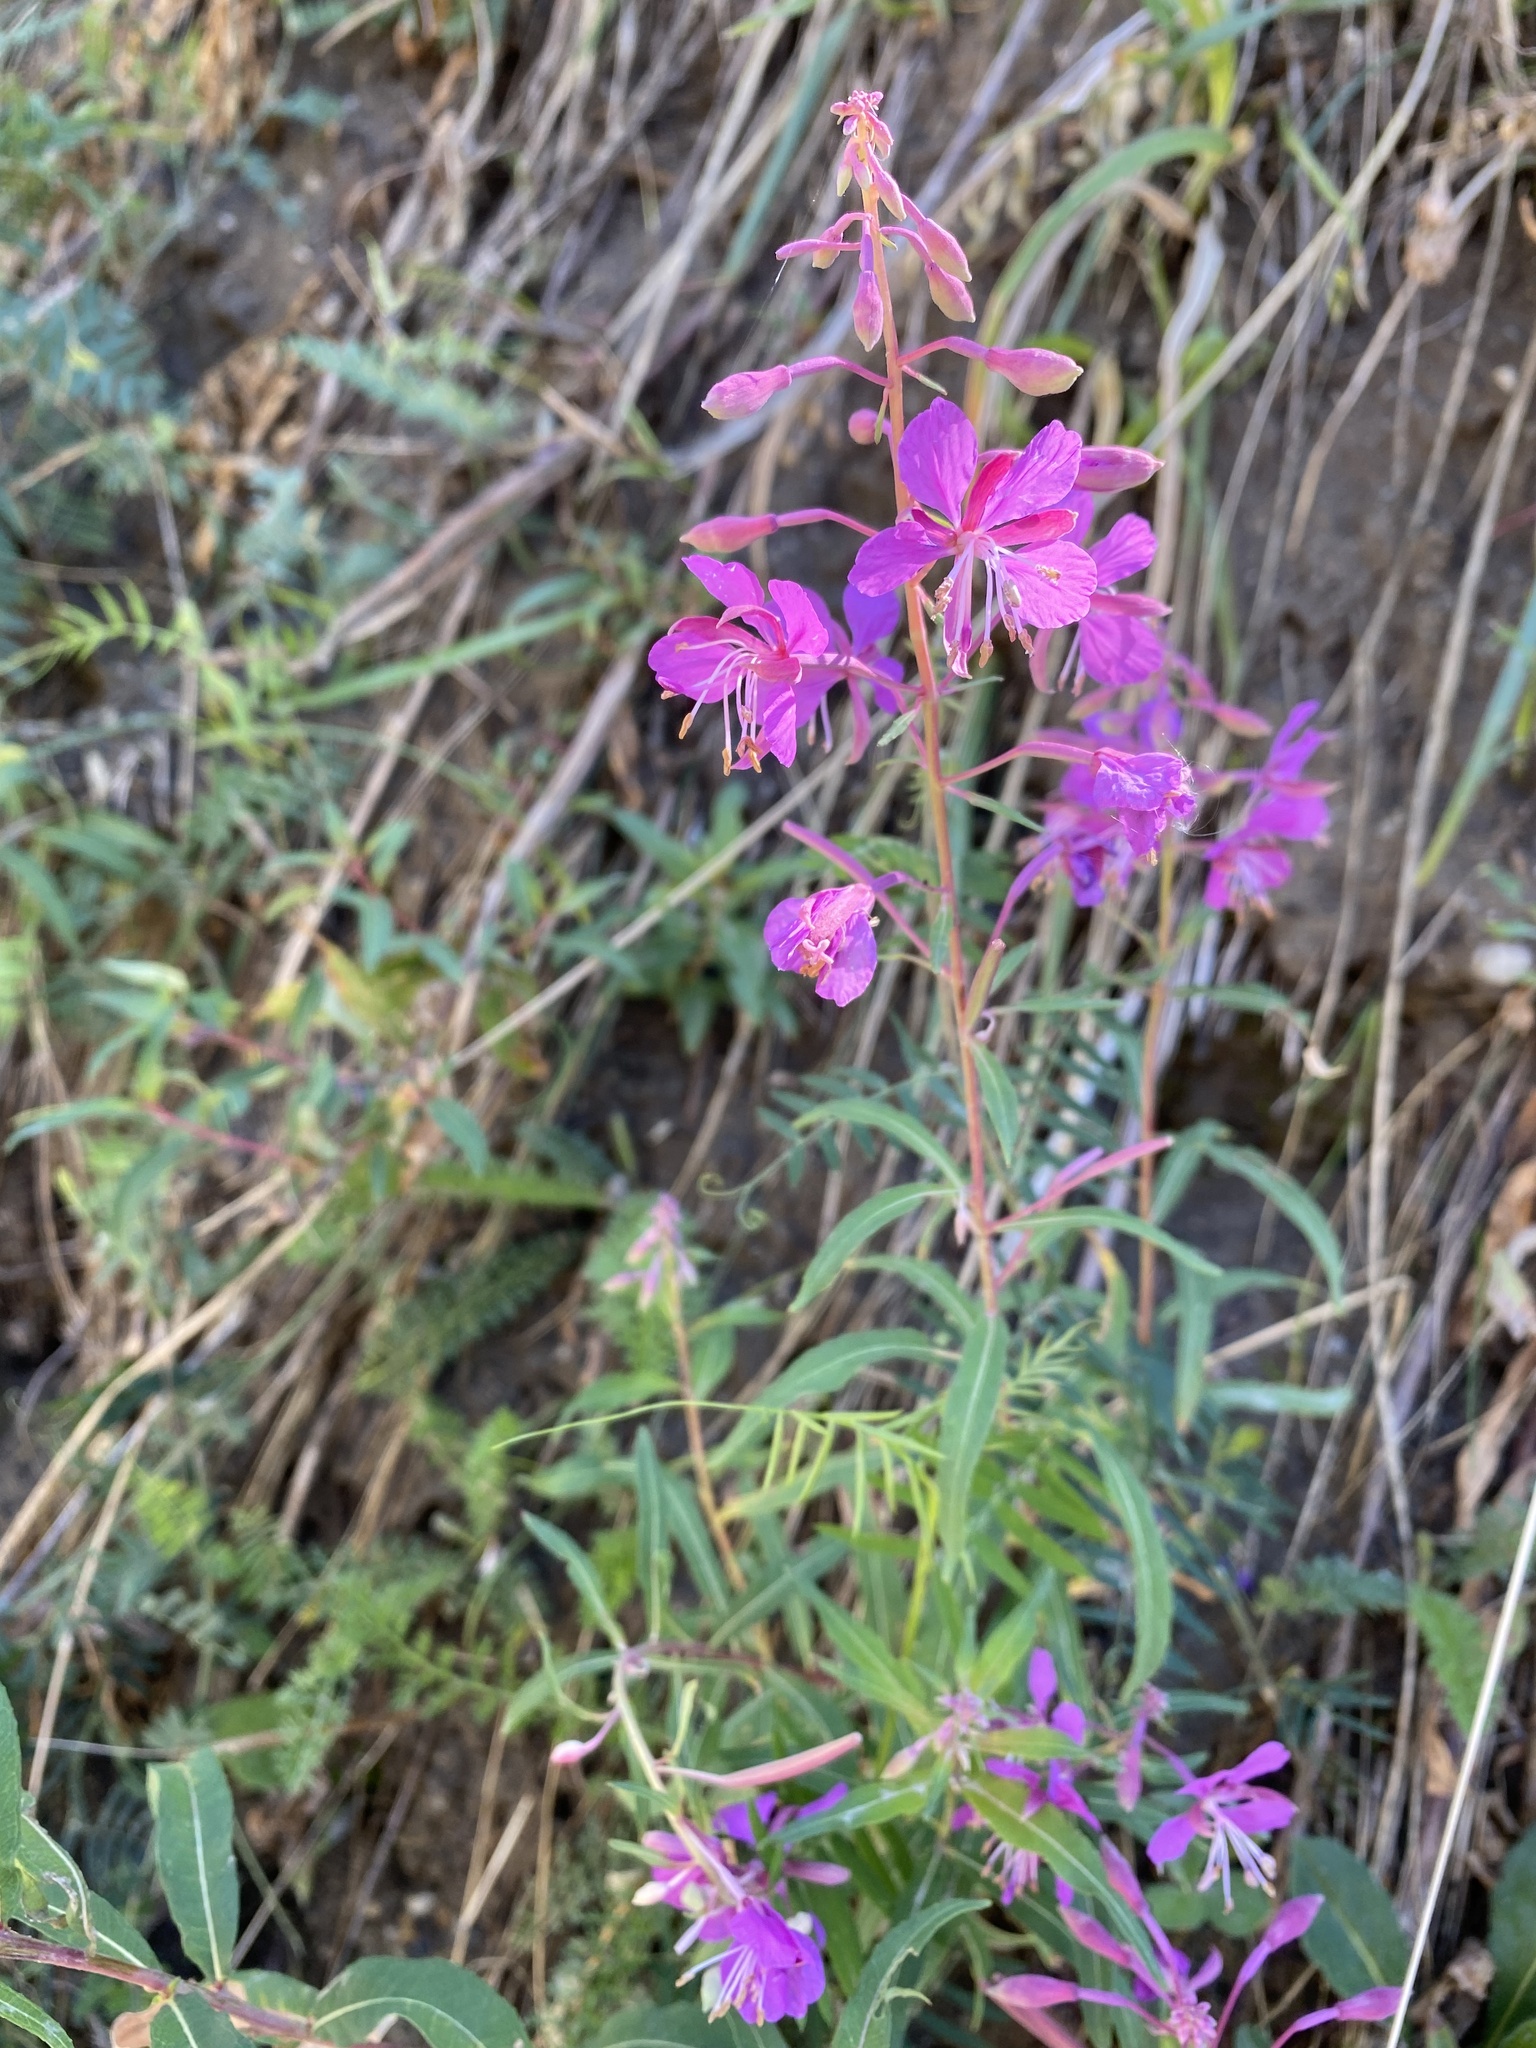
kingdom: Plantae
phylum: Tracheophyta
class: Magnoliopsida
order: Myrtales
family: Onagraceae
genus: Chamaenerion
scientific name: Chamaenerion angustifolium
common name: Fireweed
